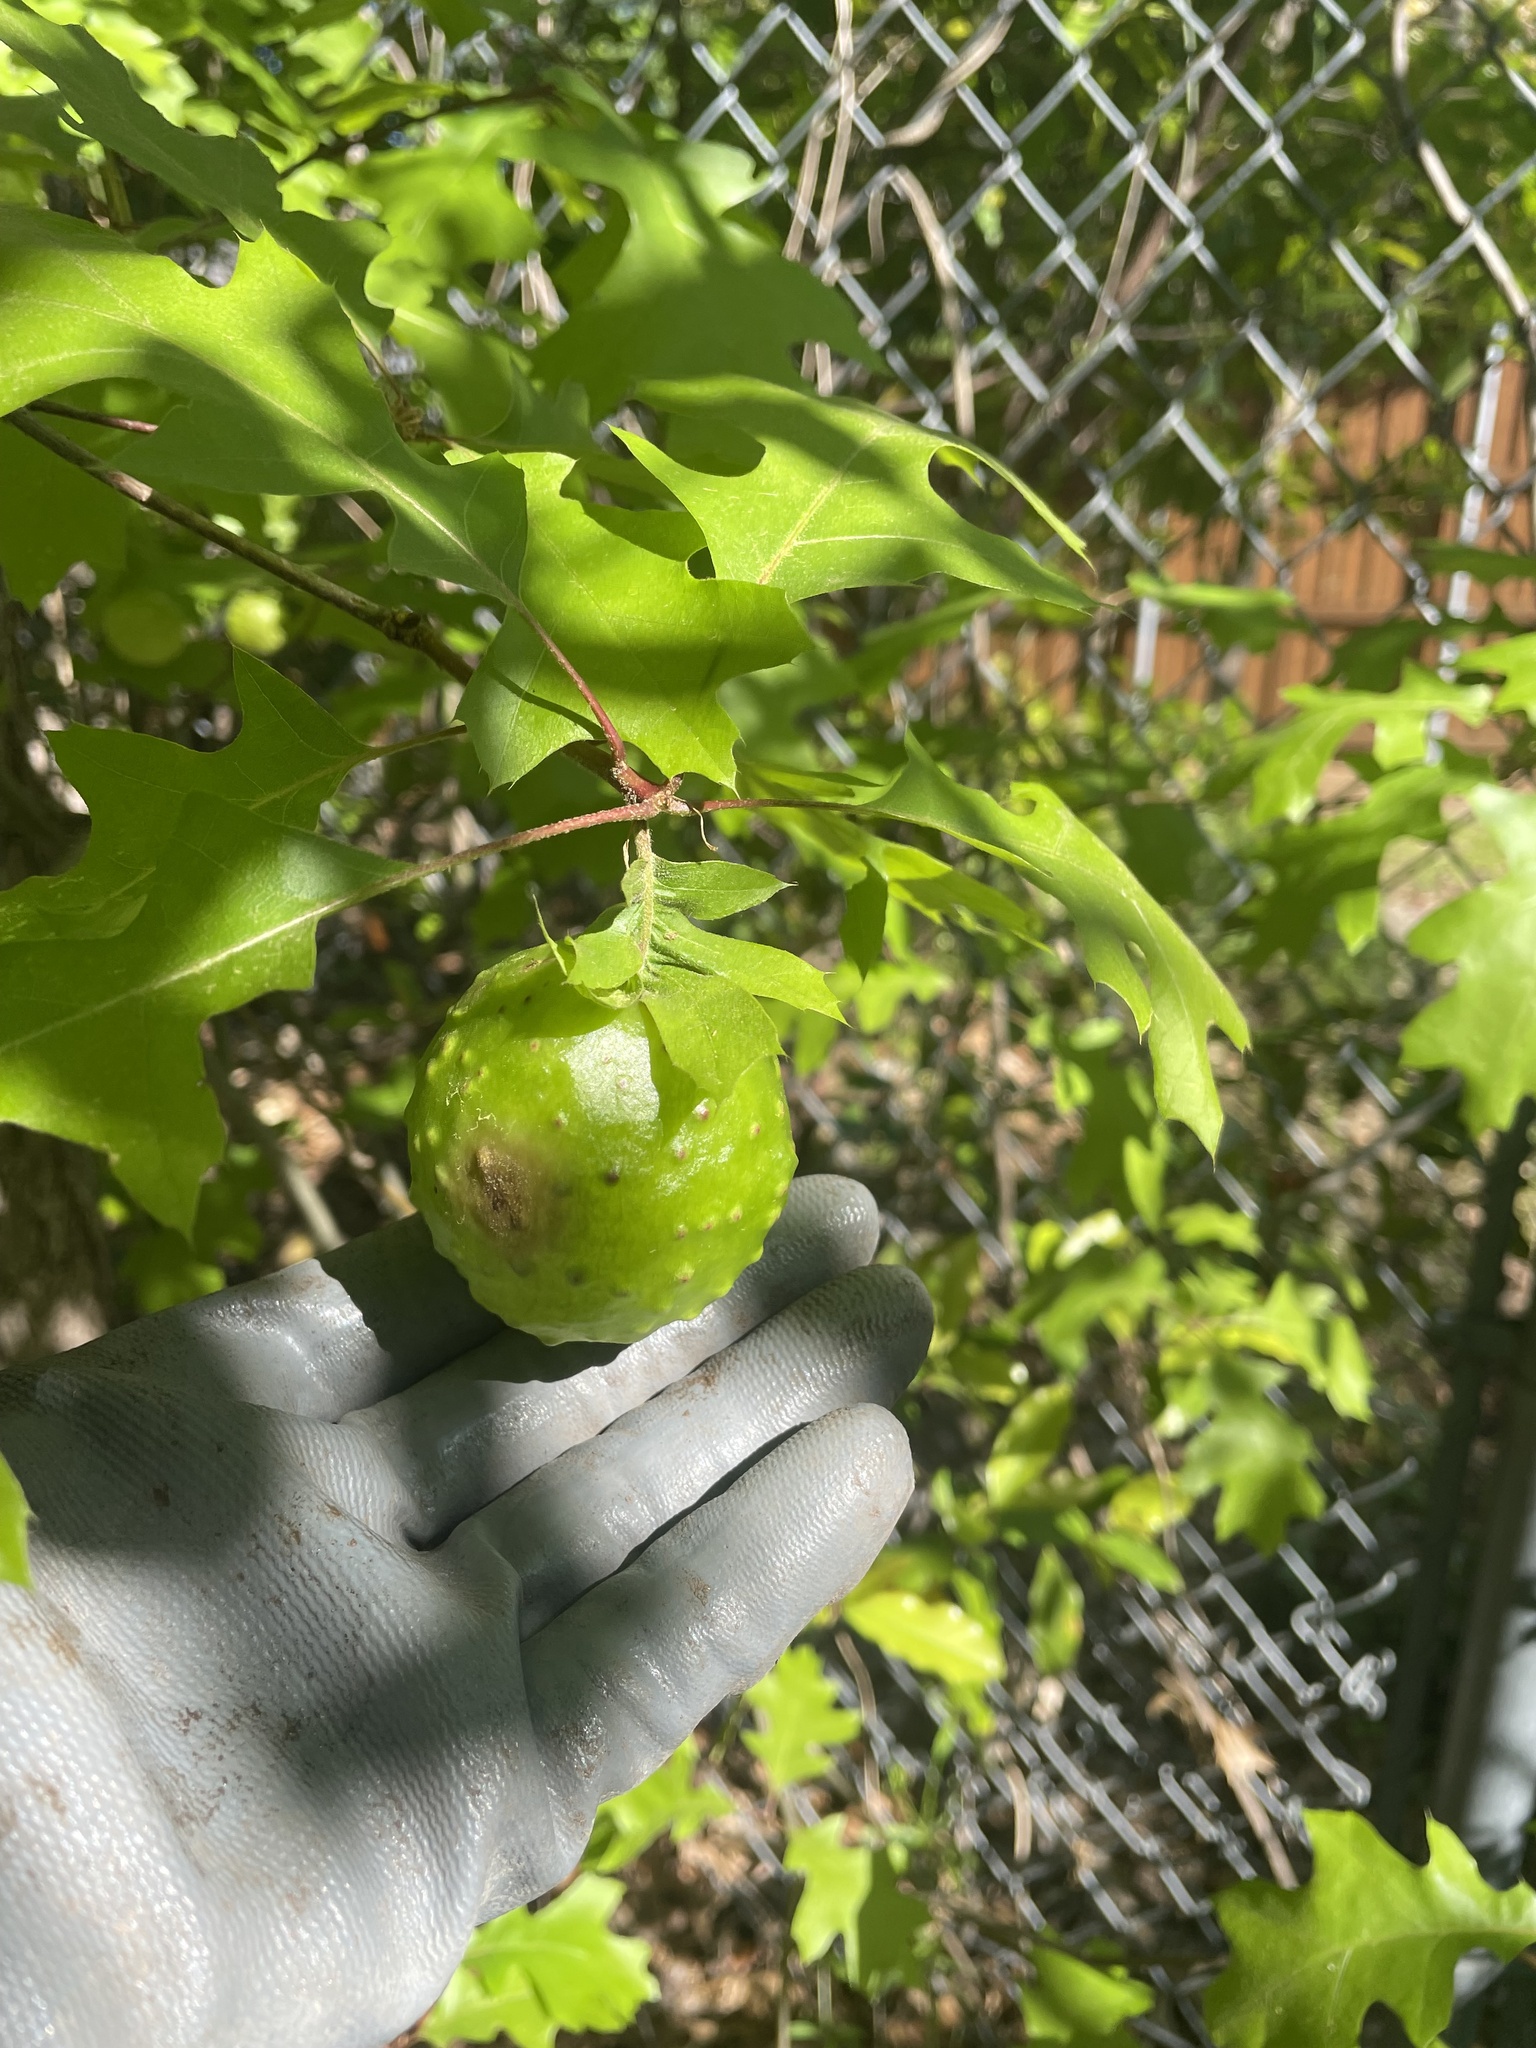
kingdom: Animalia
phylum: Arthropoda
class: Insecta
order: Hymenoptera
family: Cynipidae
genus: Amphibolips
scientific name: Amphibolips
